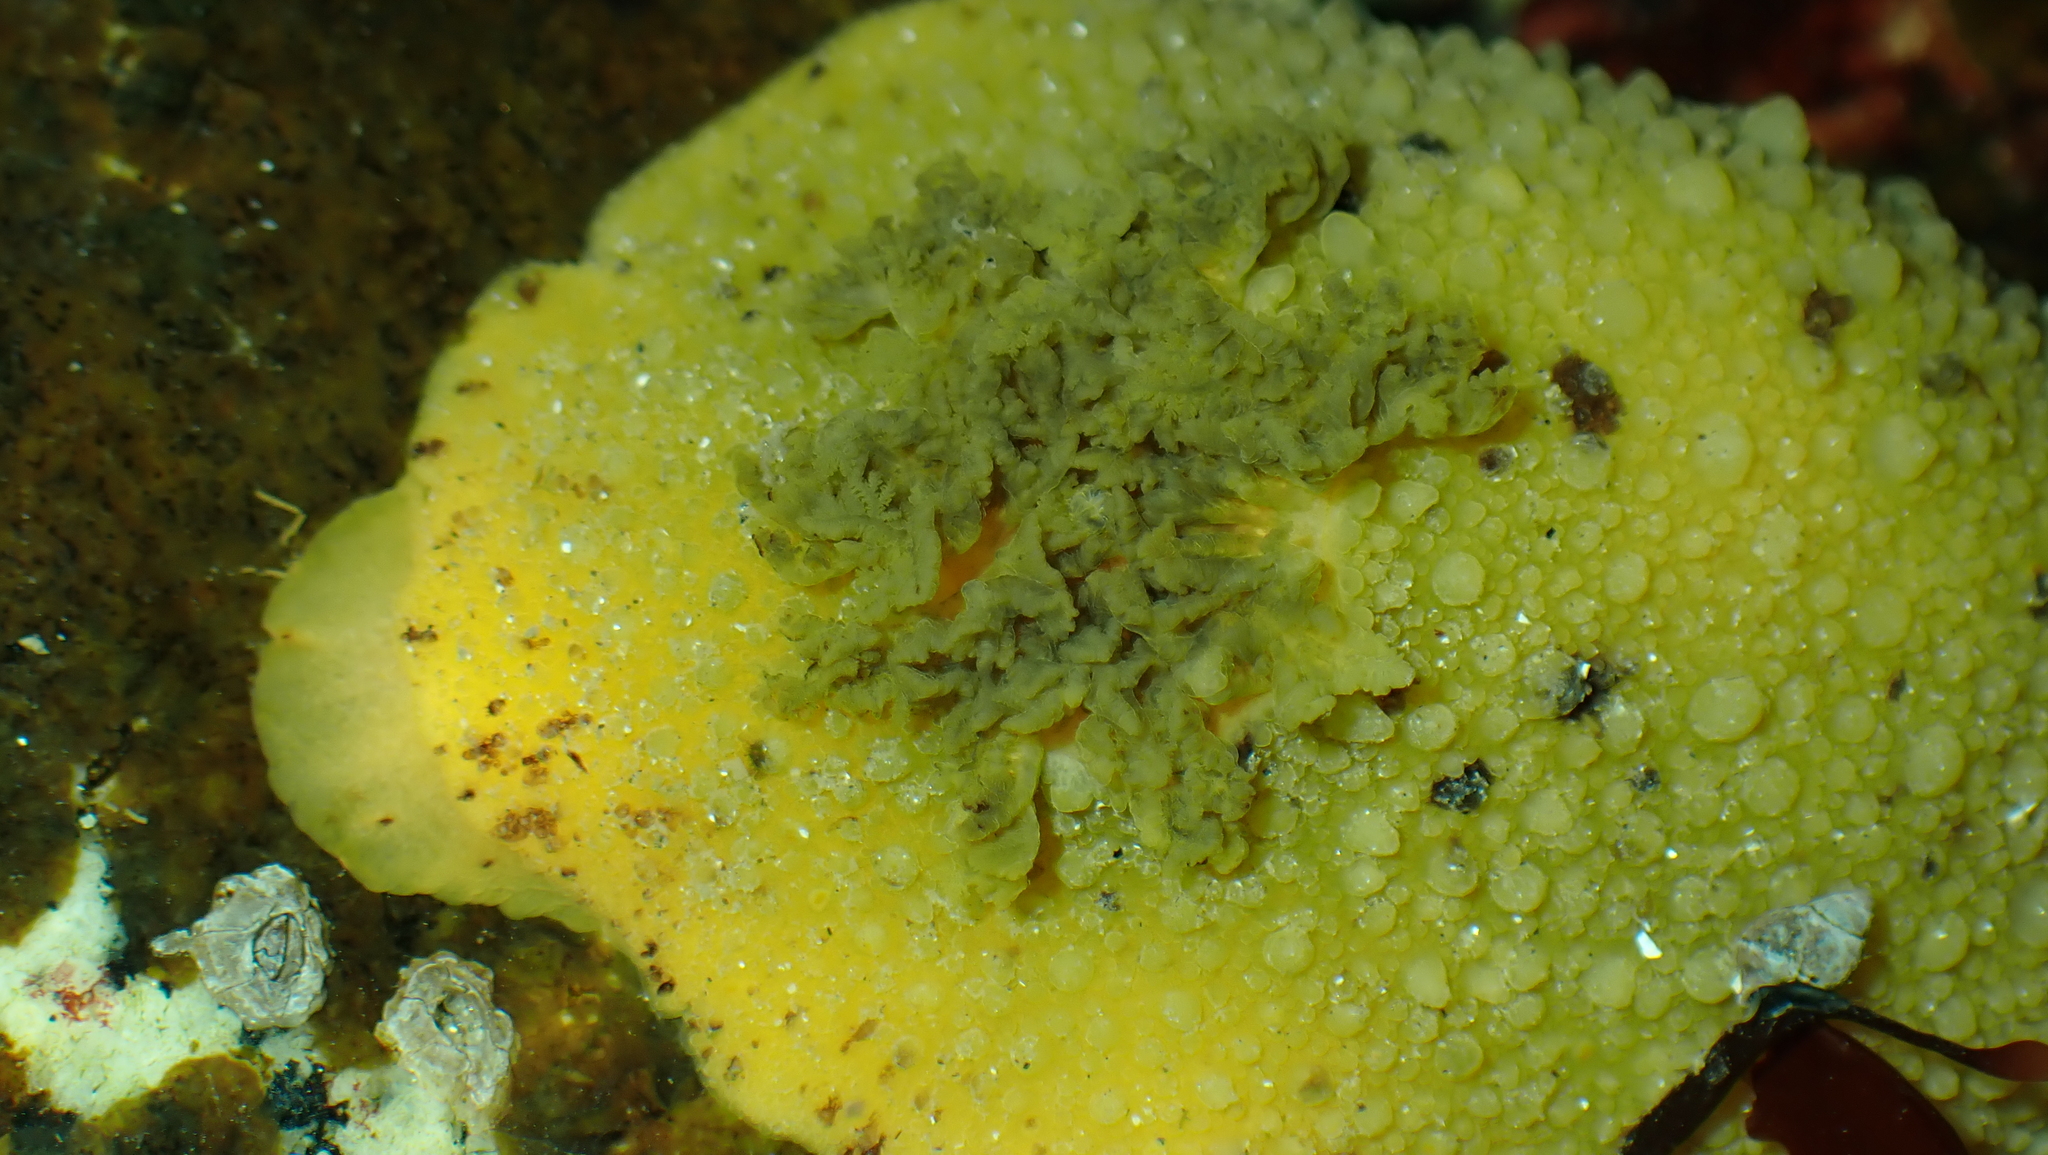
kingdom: Animalia
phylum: Mollusca
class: Gastropoda
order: Nudibranchia
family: Dorididae
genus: Doris
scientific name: Doris montereyensis
